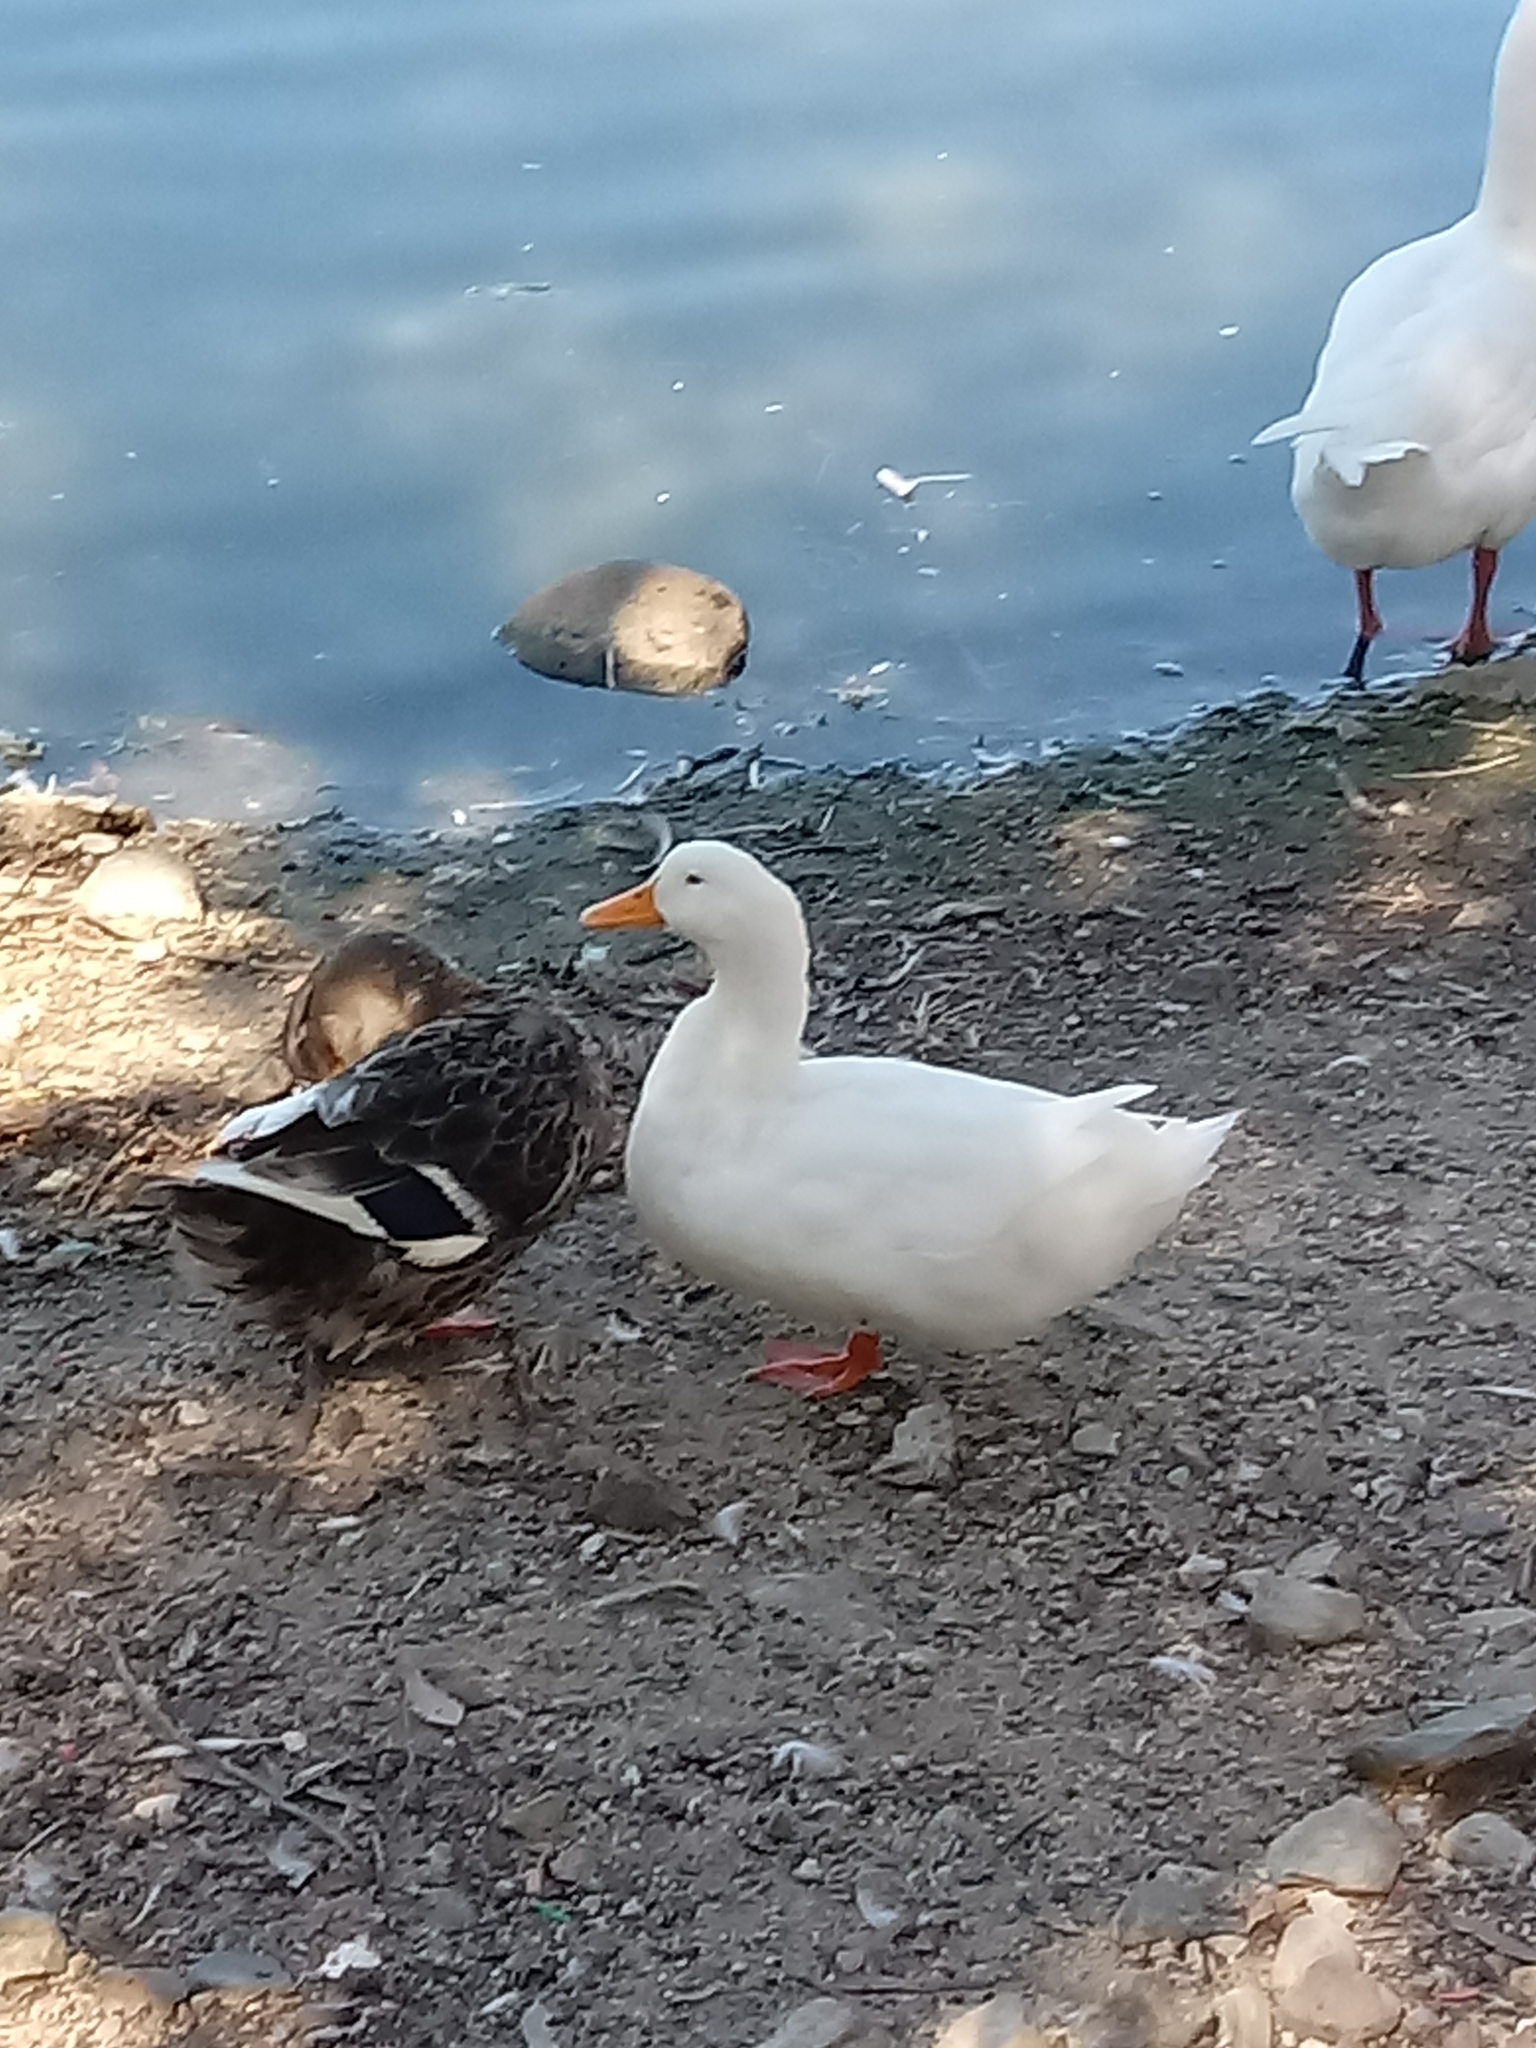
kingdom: Animalia
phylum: Chordata
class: Aves
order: Anseriformes
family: Anatidae
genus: Anas
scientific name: Anas platyrhynchos
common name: Mallard
